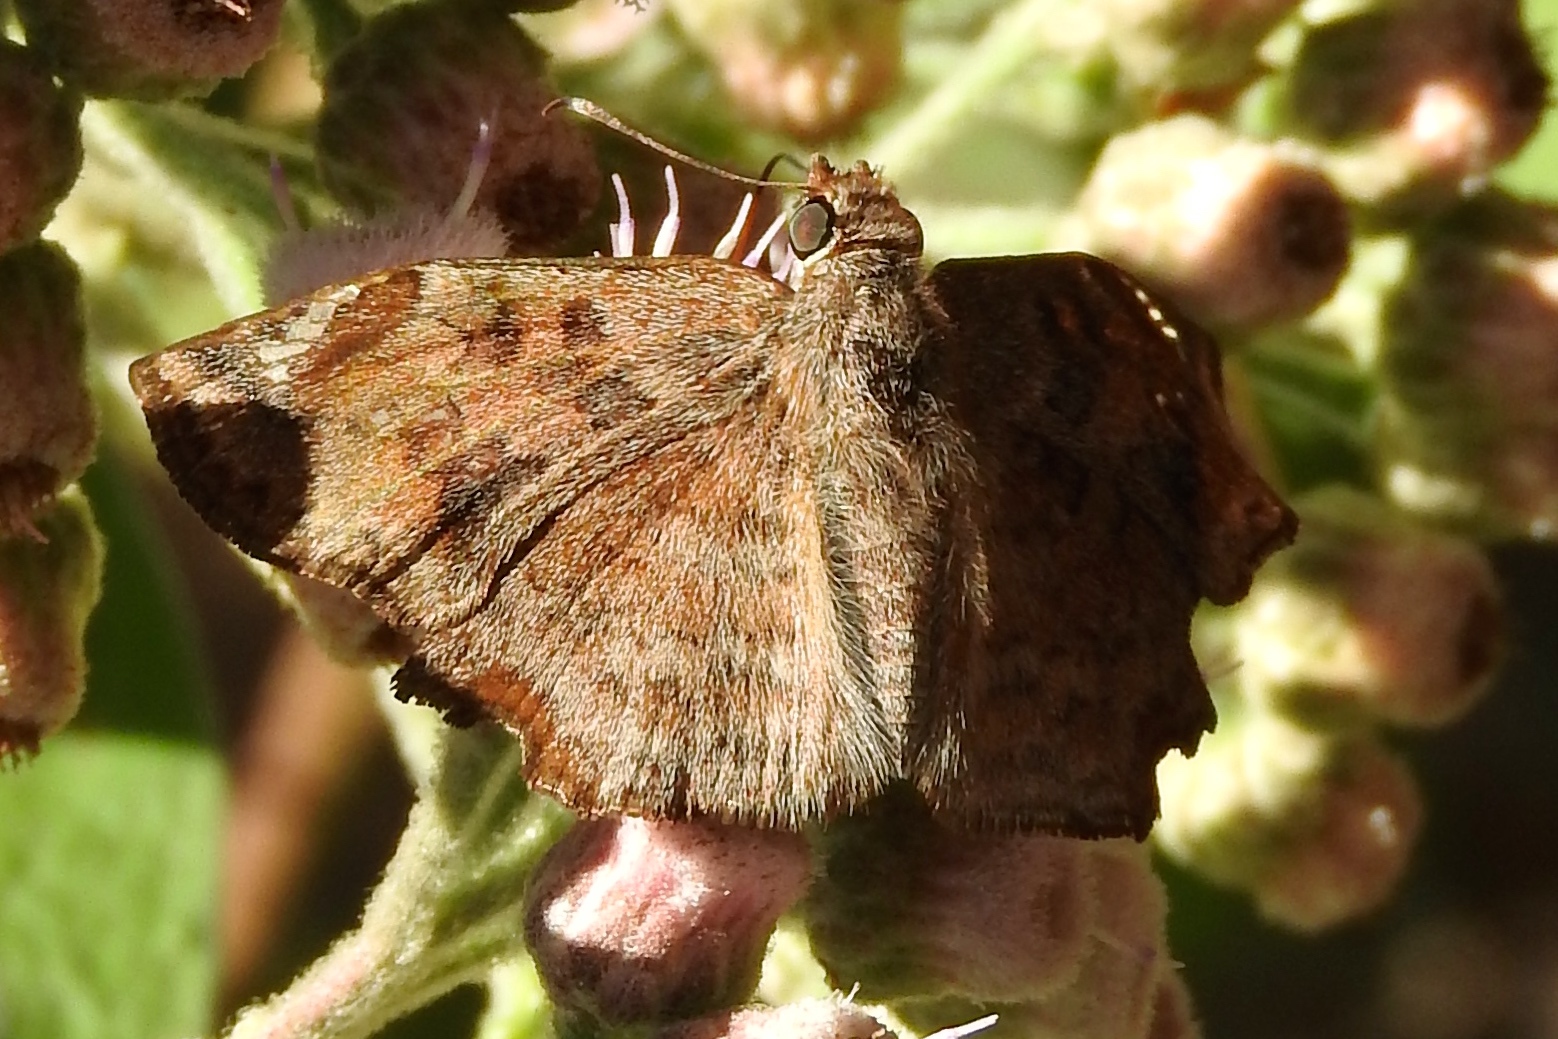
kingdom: Animalia
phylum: Arthropoda
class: Insecta
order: Lepidoptera
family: Hesperiidae
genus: Antigonus
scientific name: Antigonus erosus
